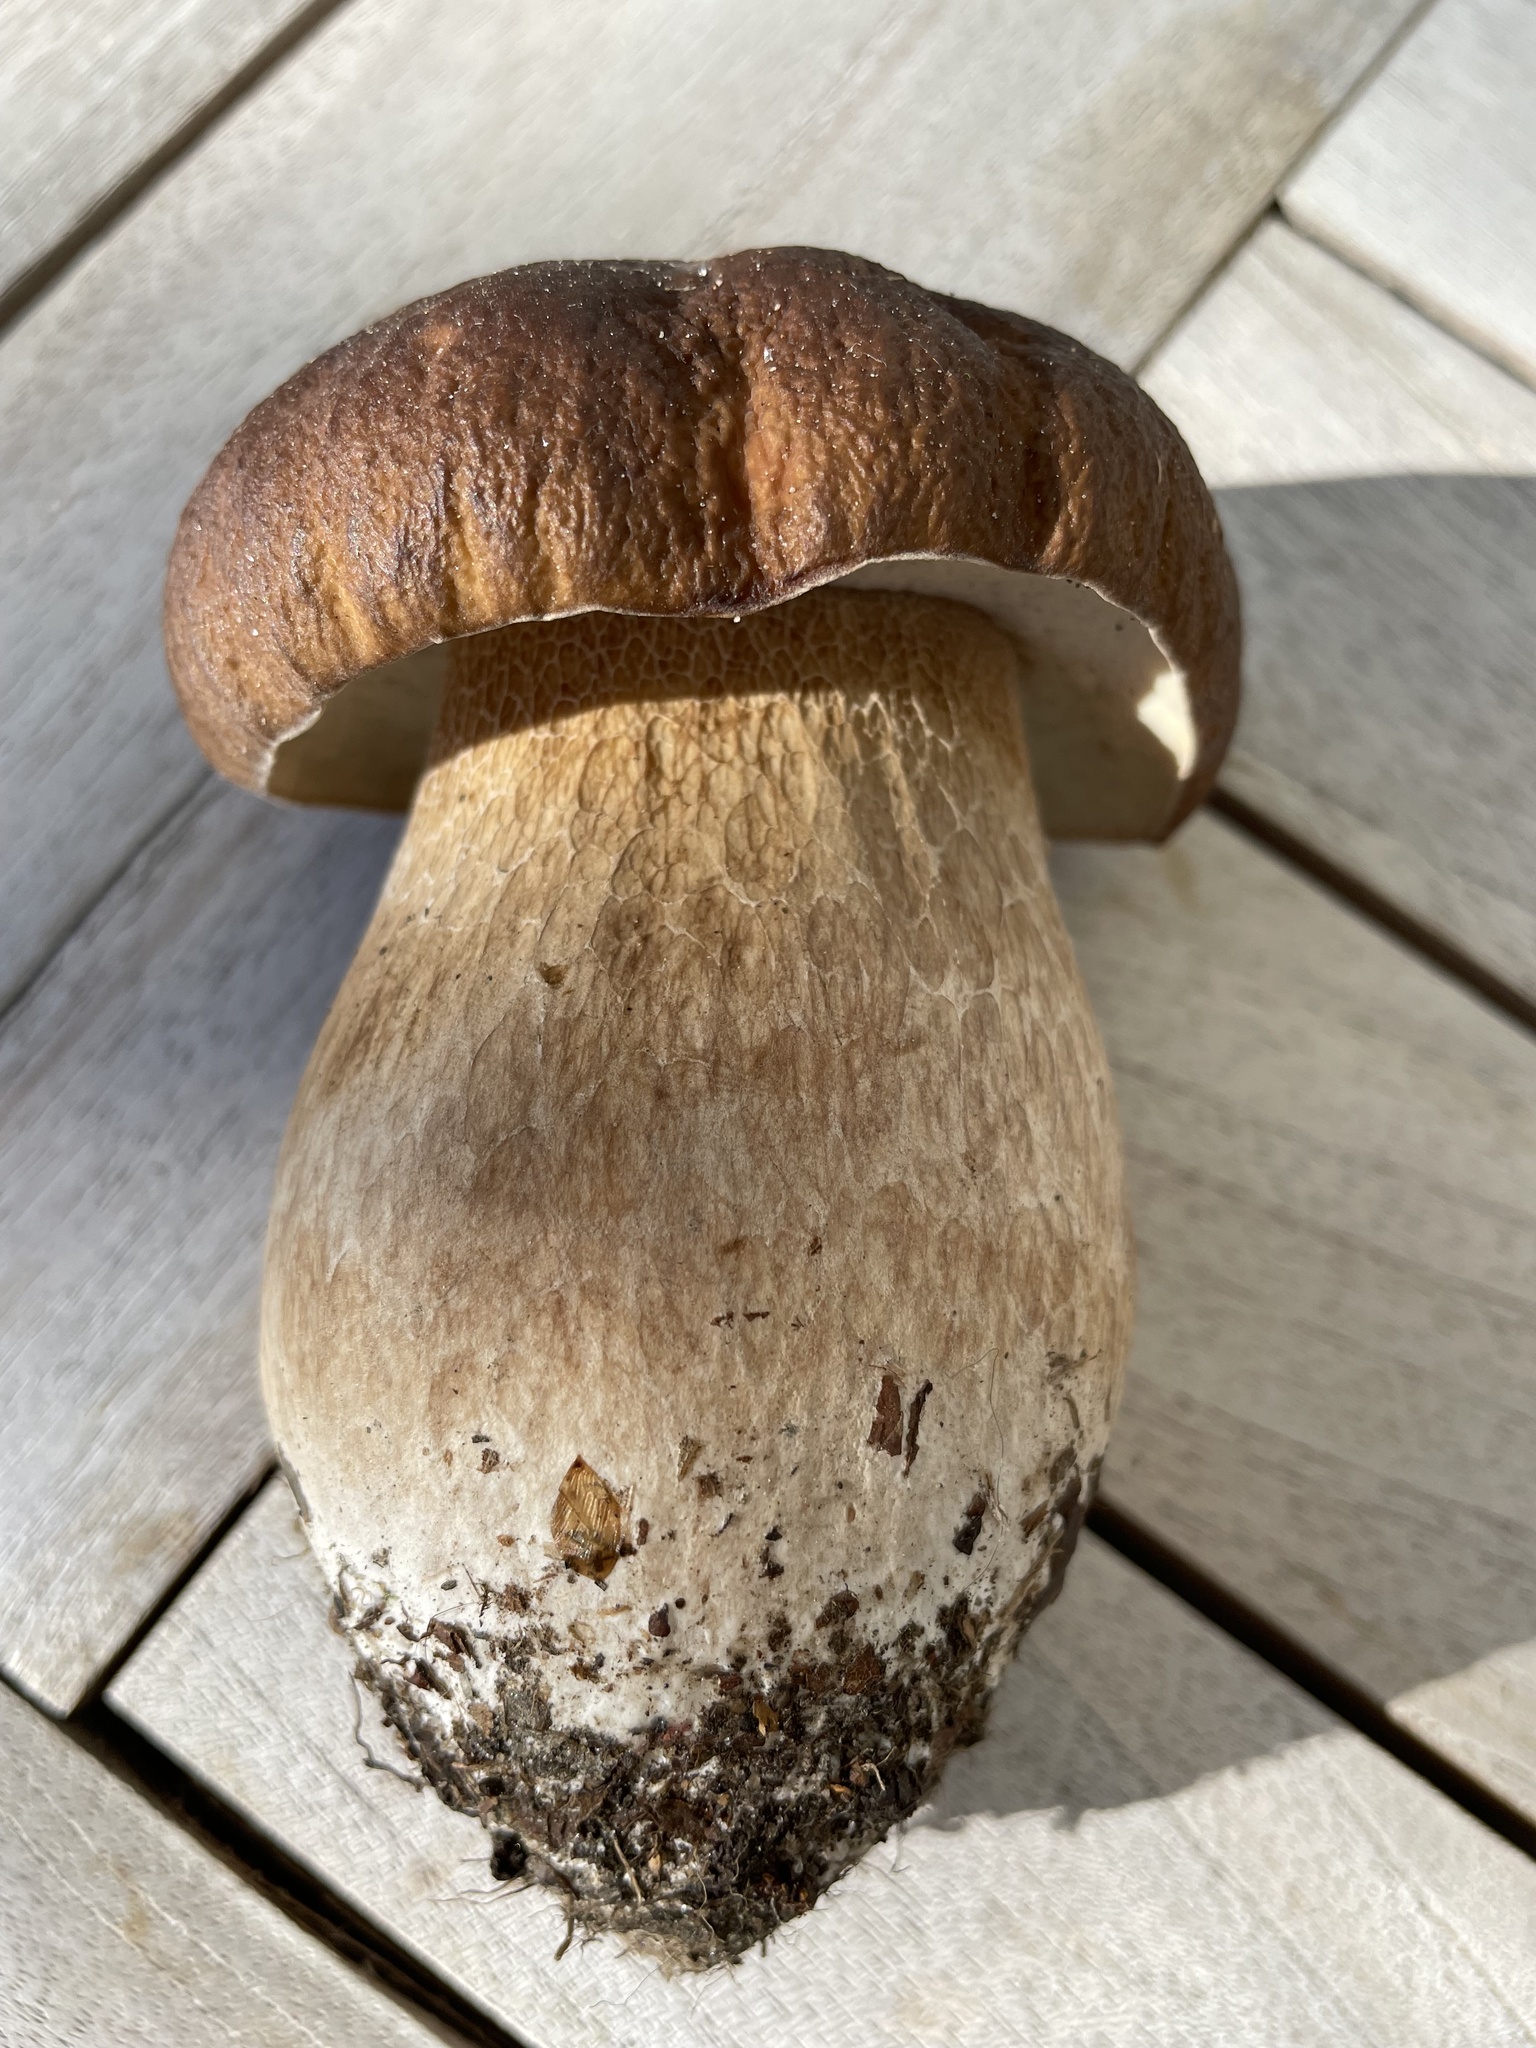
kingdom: Fungi
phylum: Basidiomycota
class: Agaricomycetes
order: Boletales
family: Boletaceae
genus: Boletus
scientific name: Boletus edulis
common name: Cep
